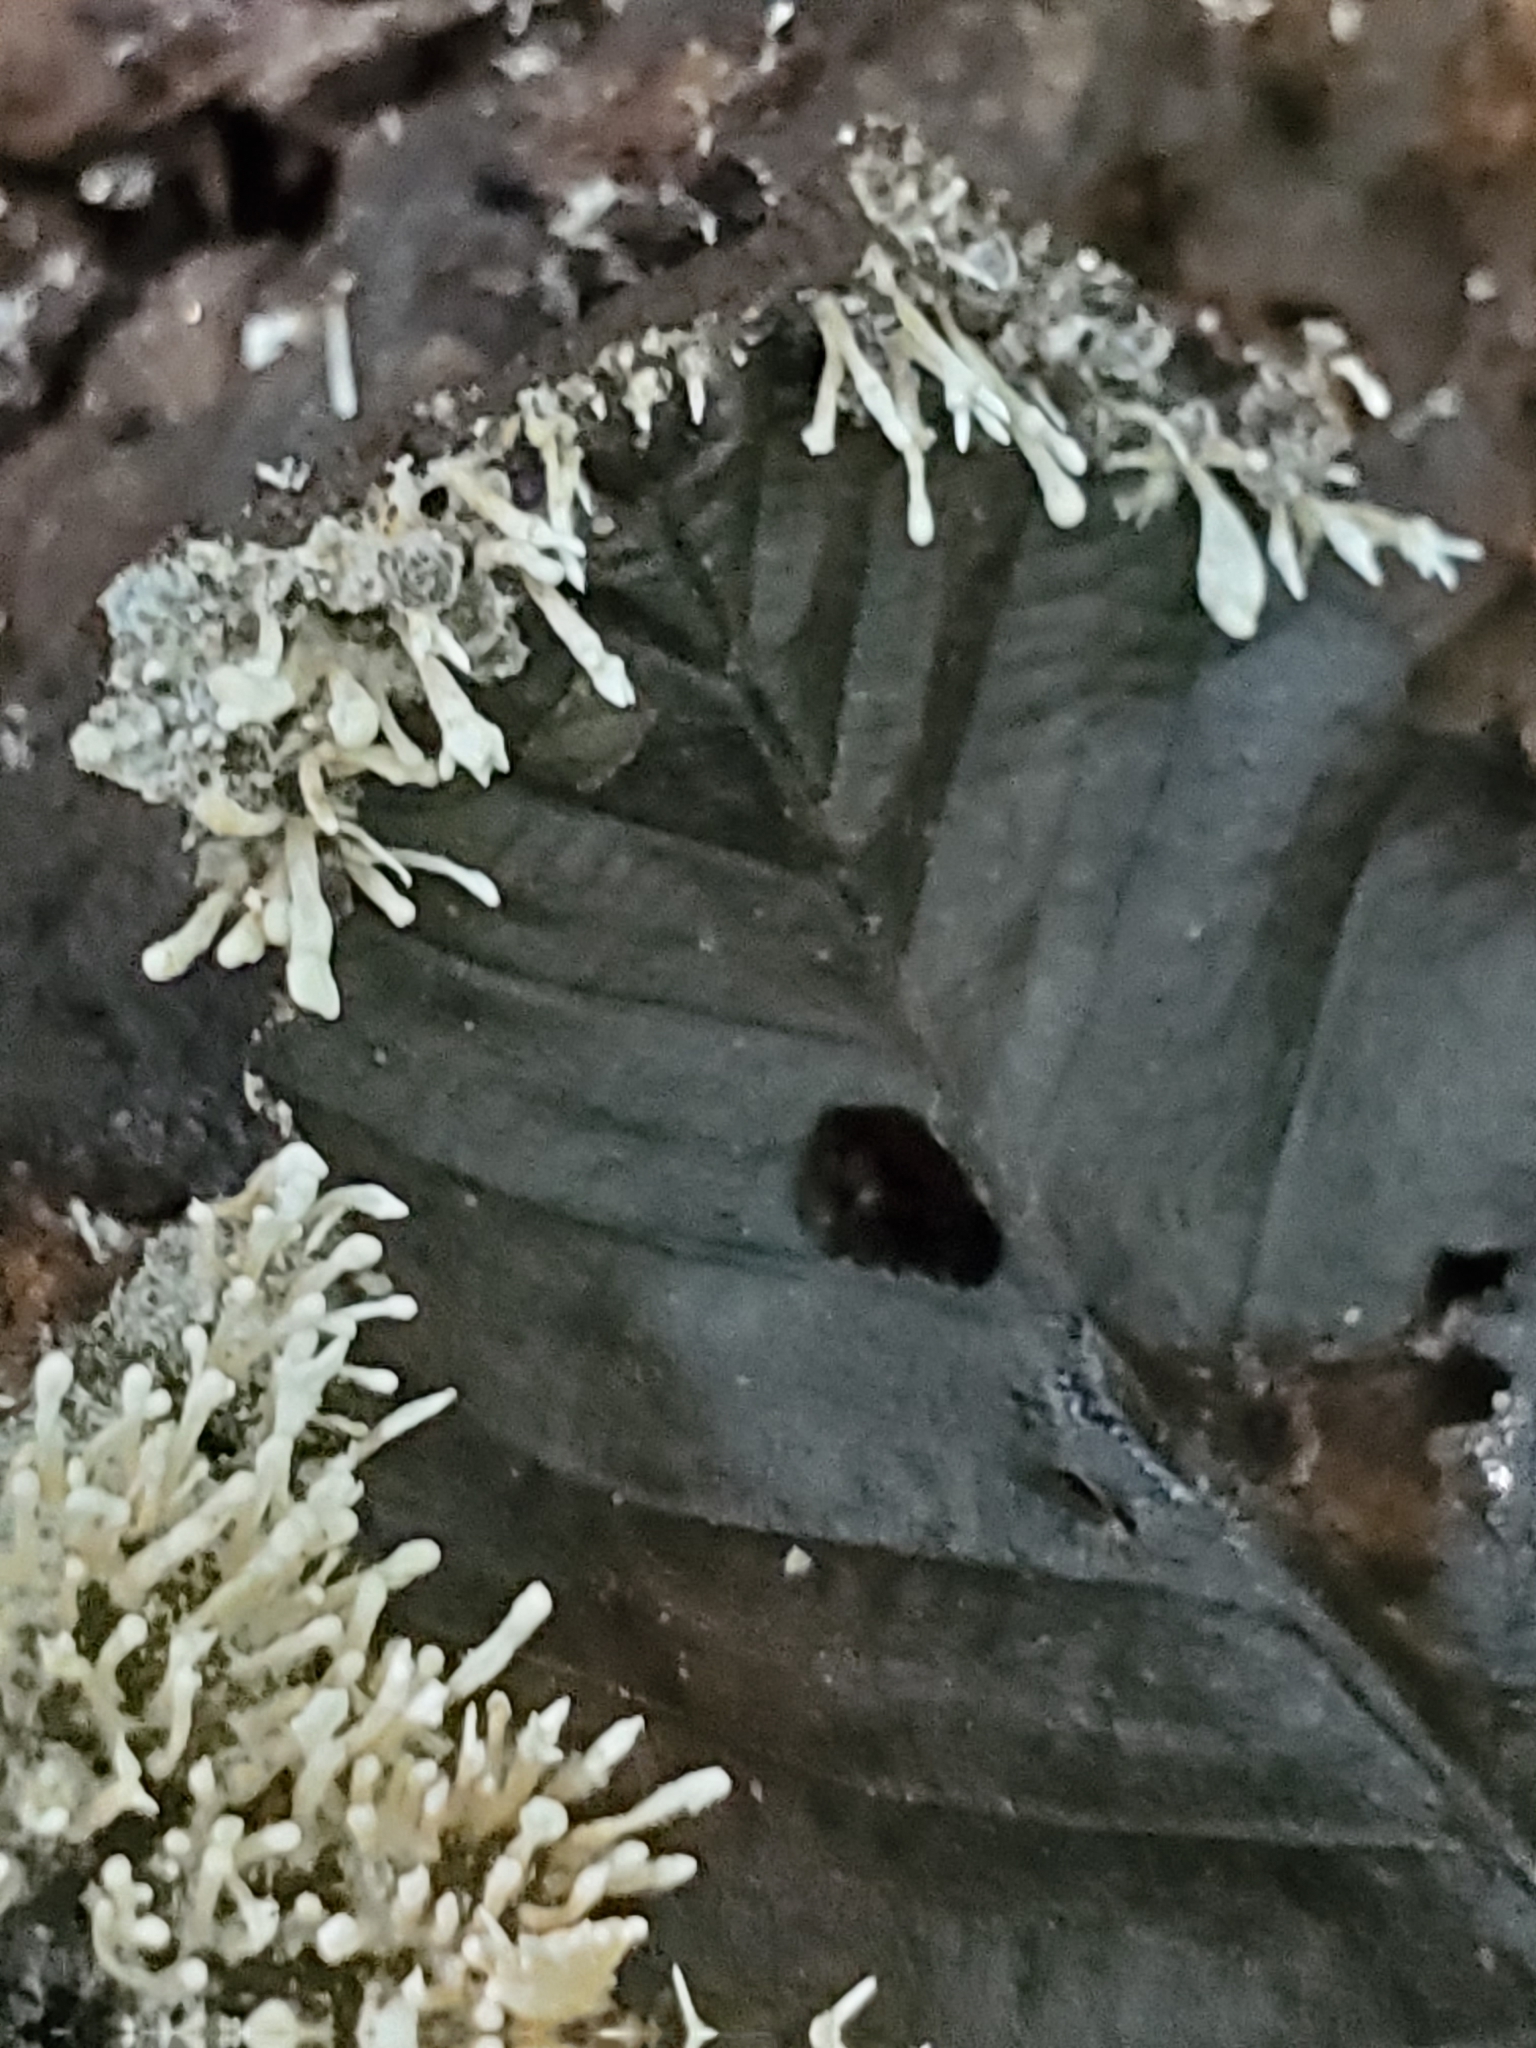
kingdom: Fungi
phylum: Ascomycota
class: Sordariomycetes
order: Hypocreales
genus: Stilbella
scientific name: Stilbella byssiseda
